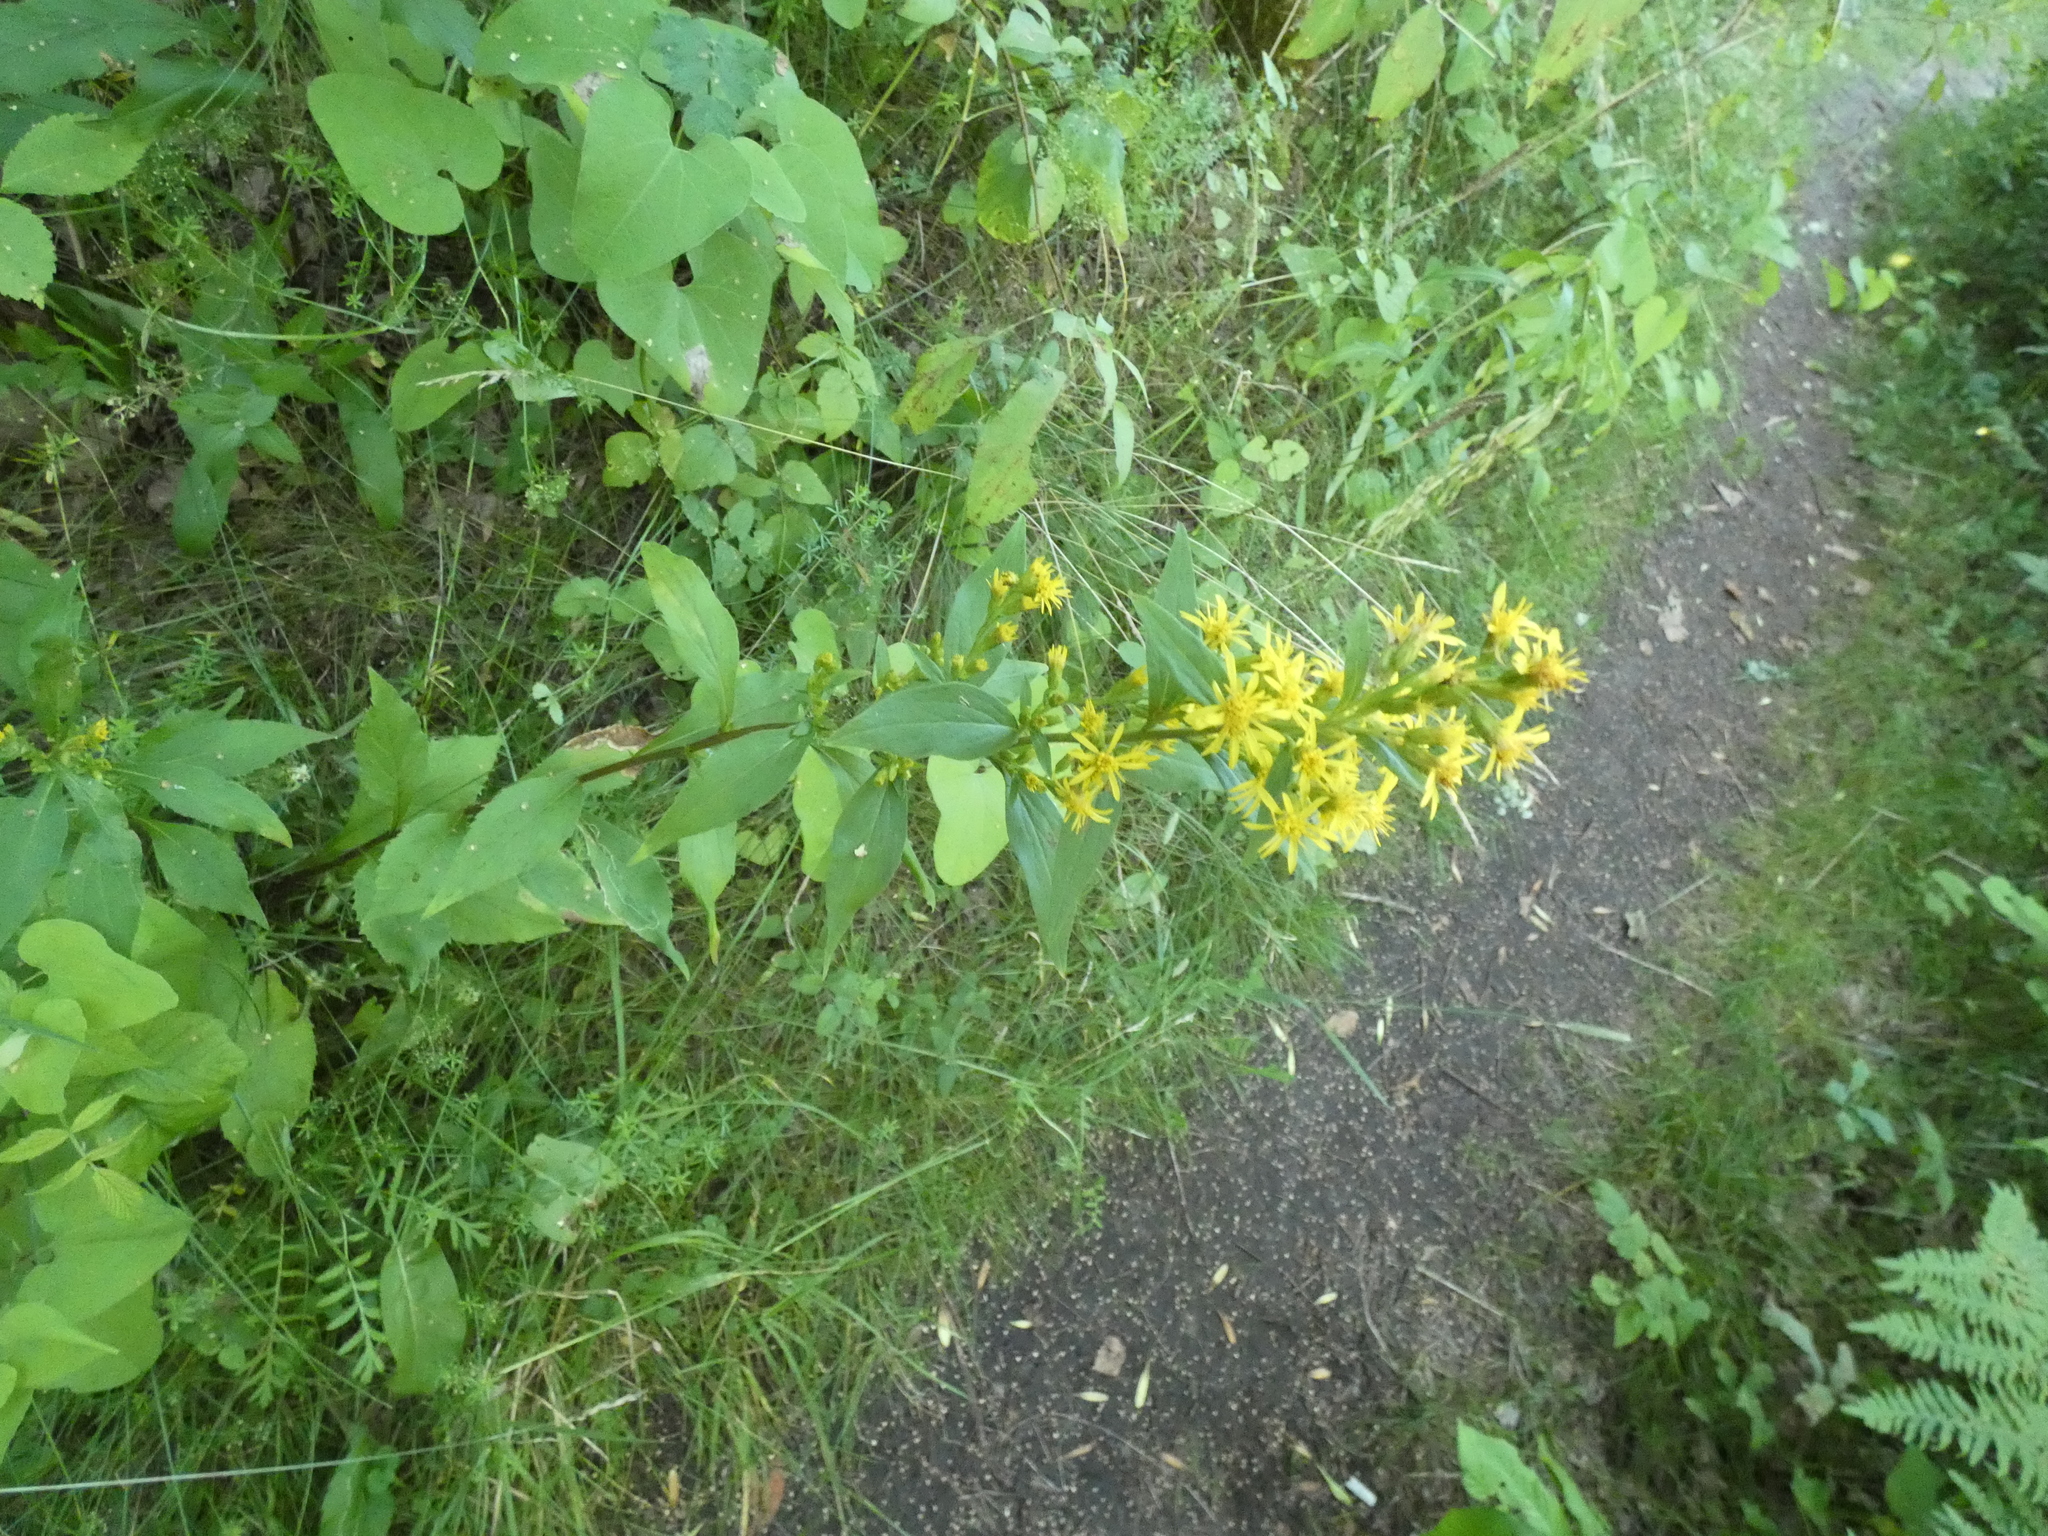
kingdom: Plantae
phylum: Tracheophyta
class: Magnoliopsida
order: Asterales
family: Asteraceae
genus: Solidago
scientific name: Solidago virgaurea
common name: Goldenrod
